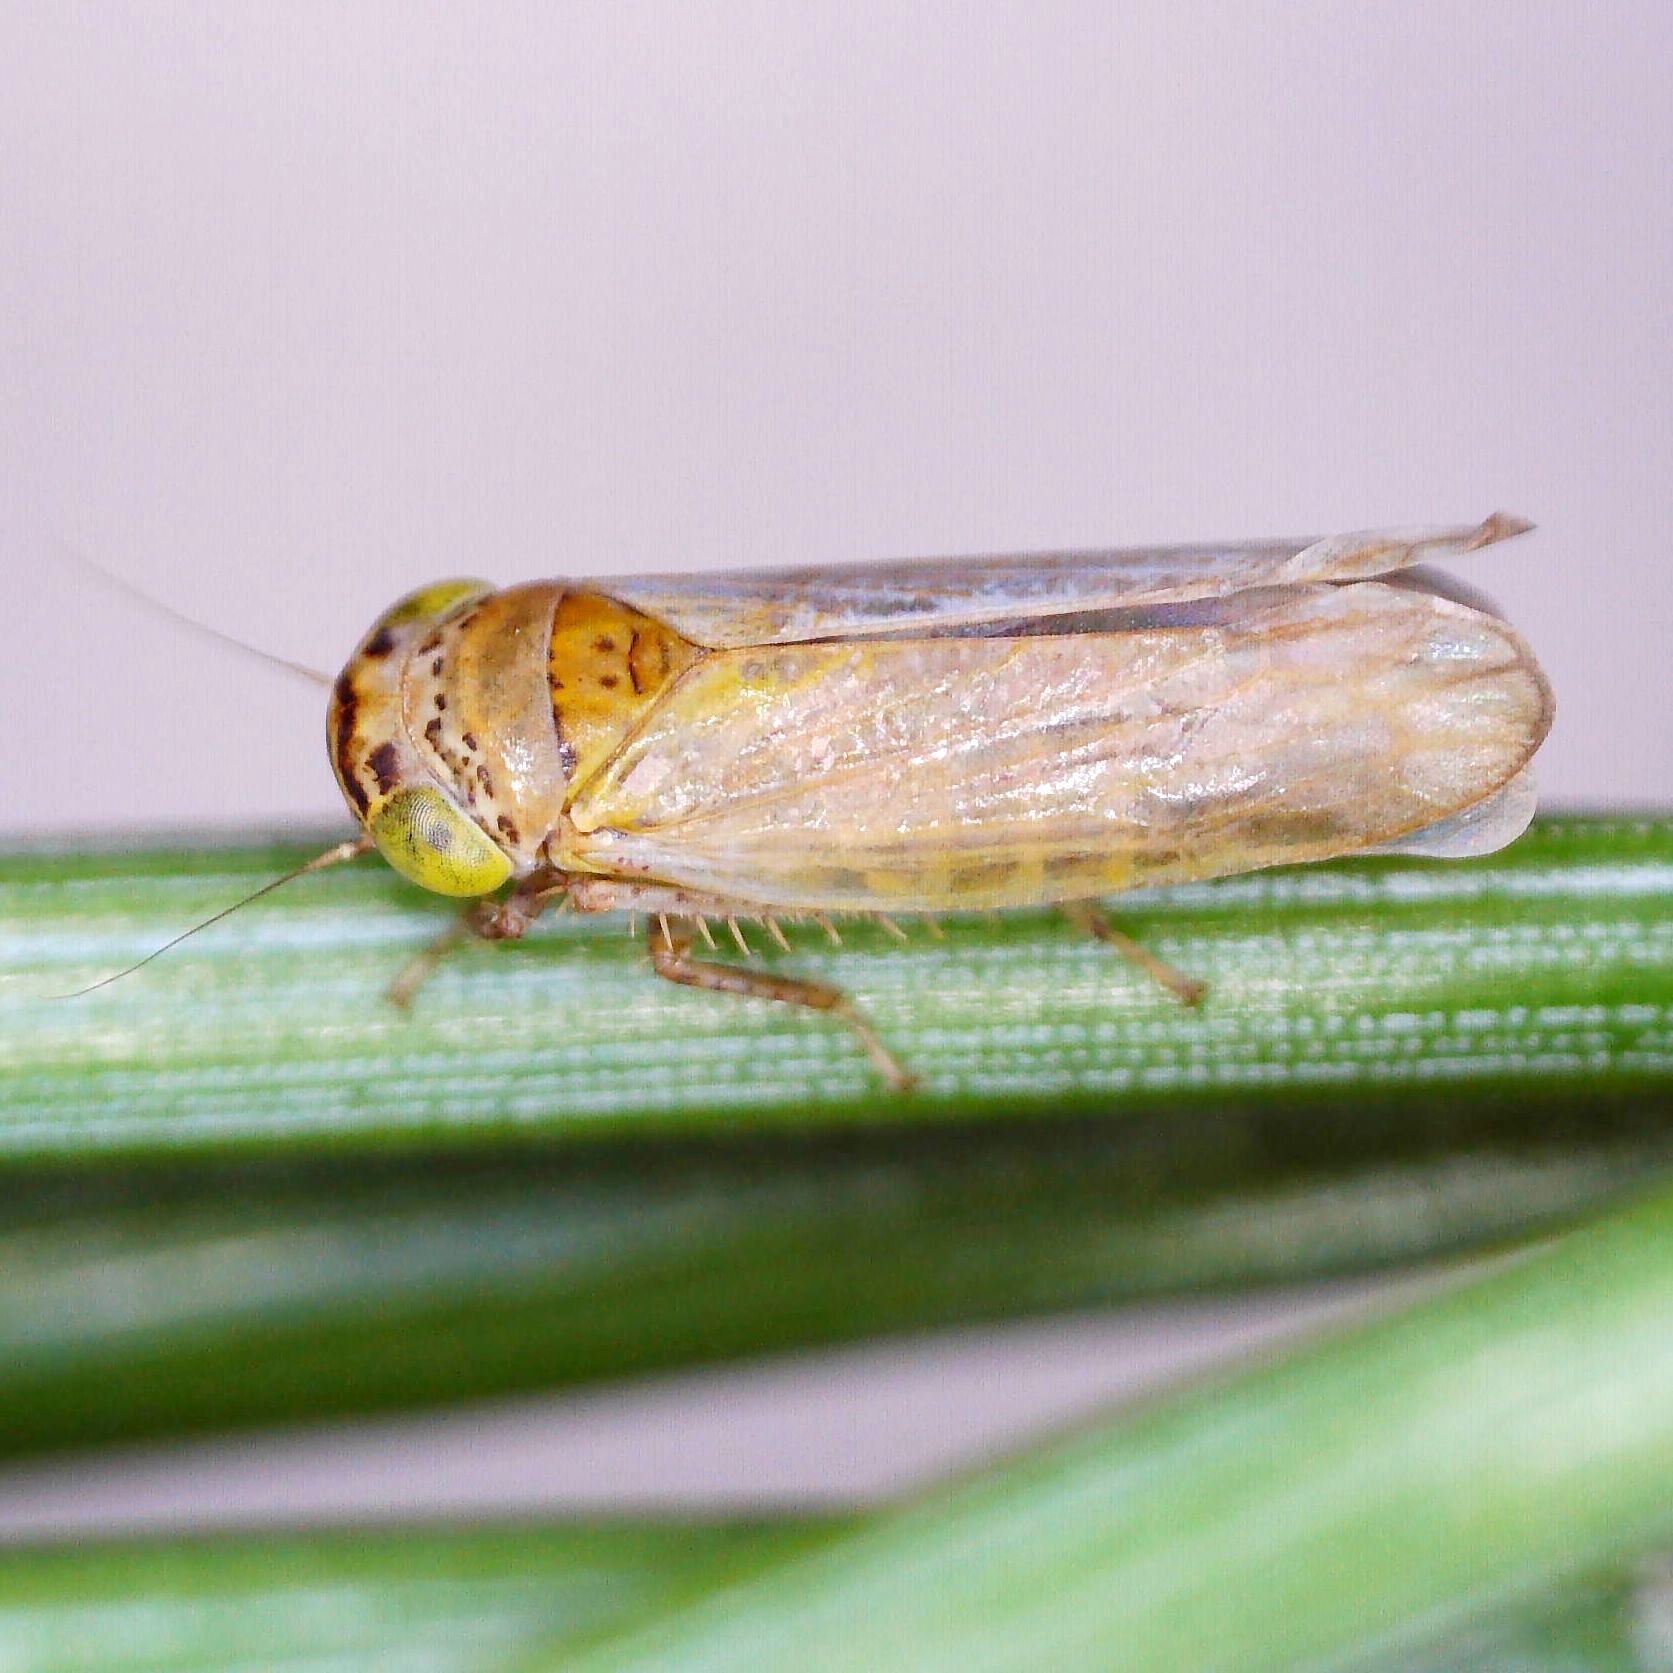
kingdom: Animalia
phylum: Arthropoda
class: Insecta
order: Hemiptera
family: Cicadellidae
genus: Grypotes
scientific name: Grypotes puncticollis
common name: Leafhopper
